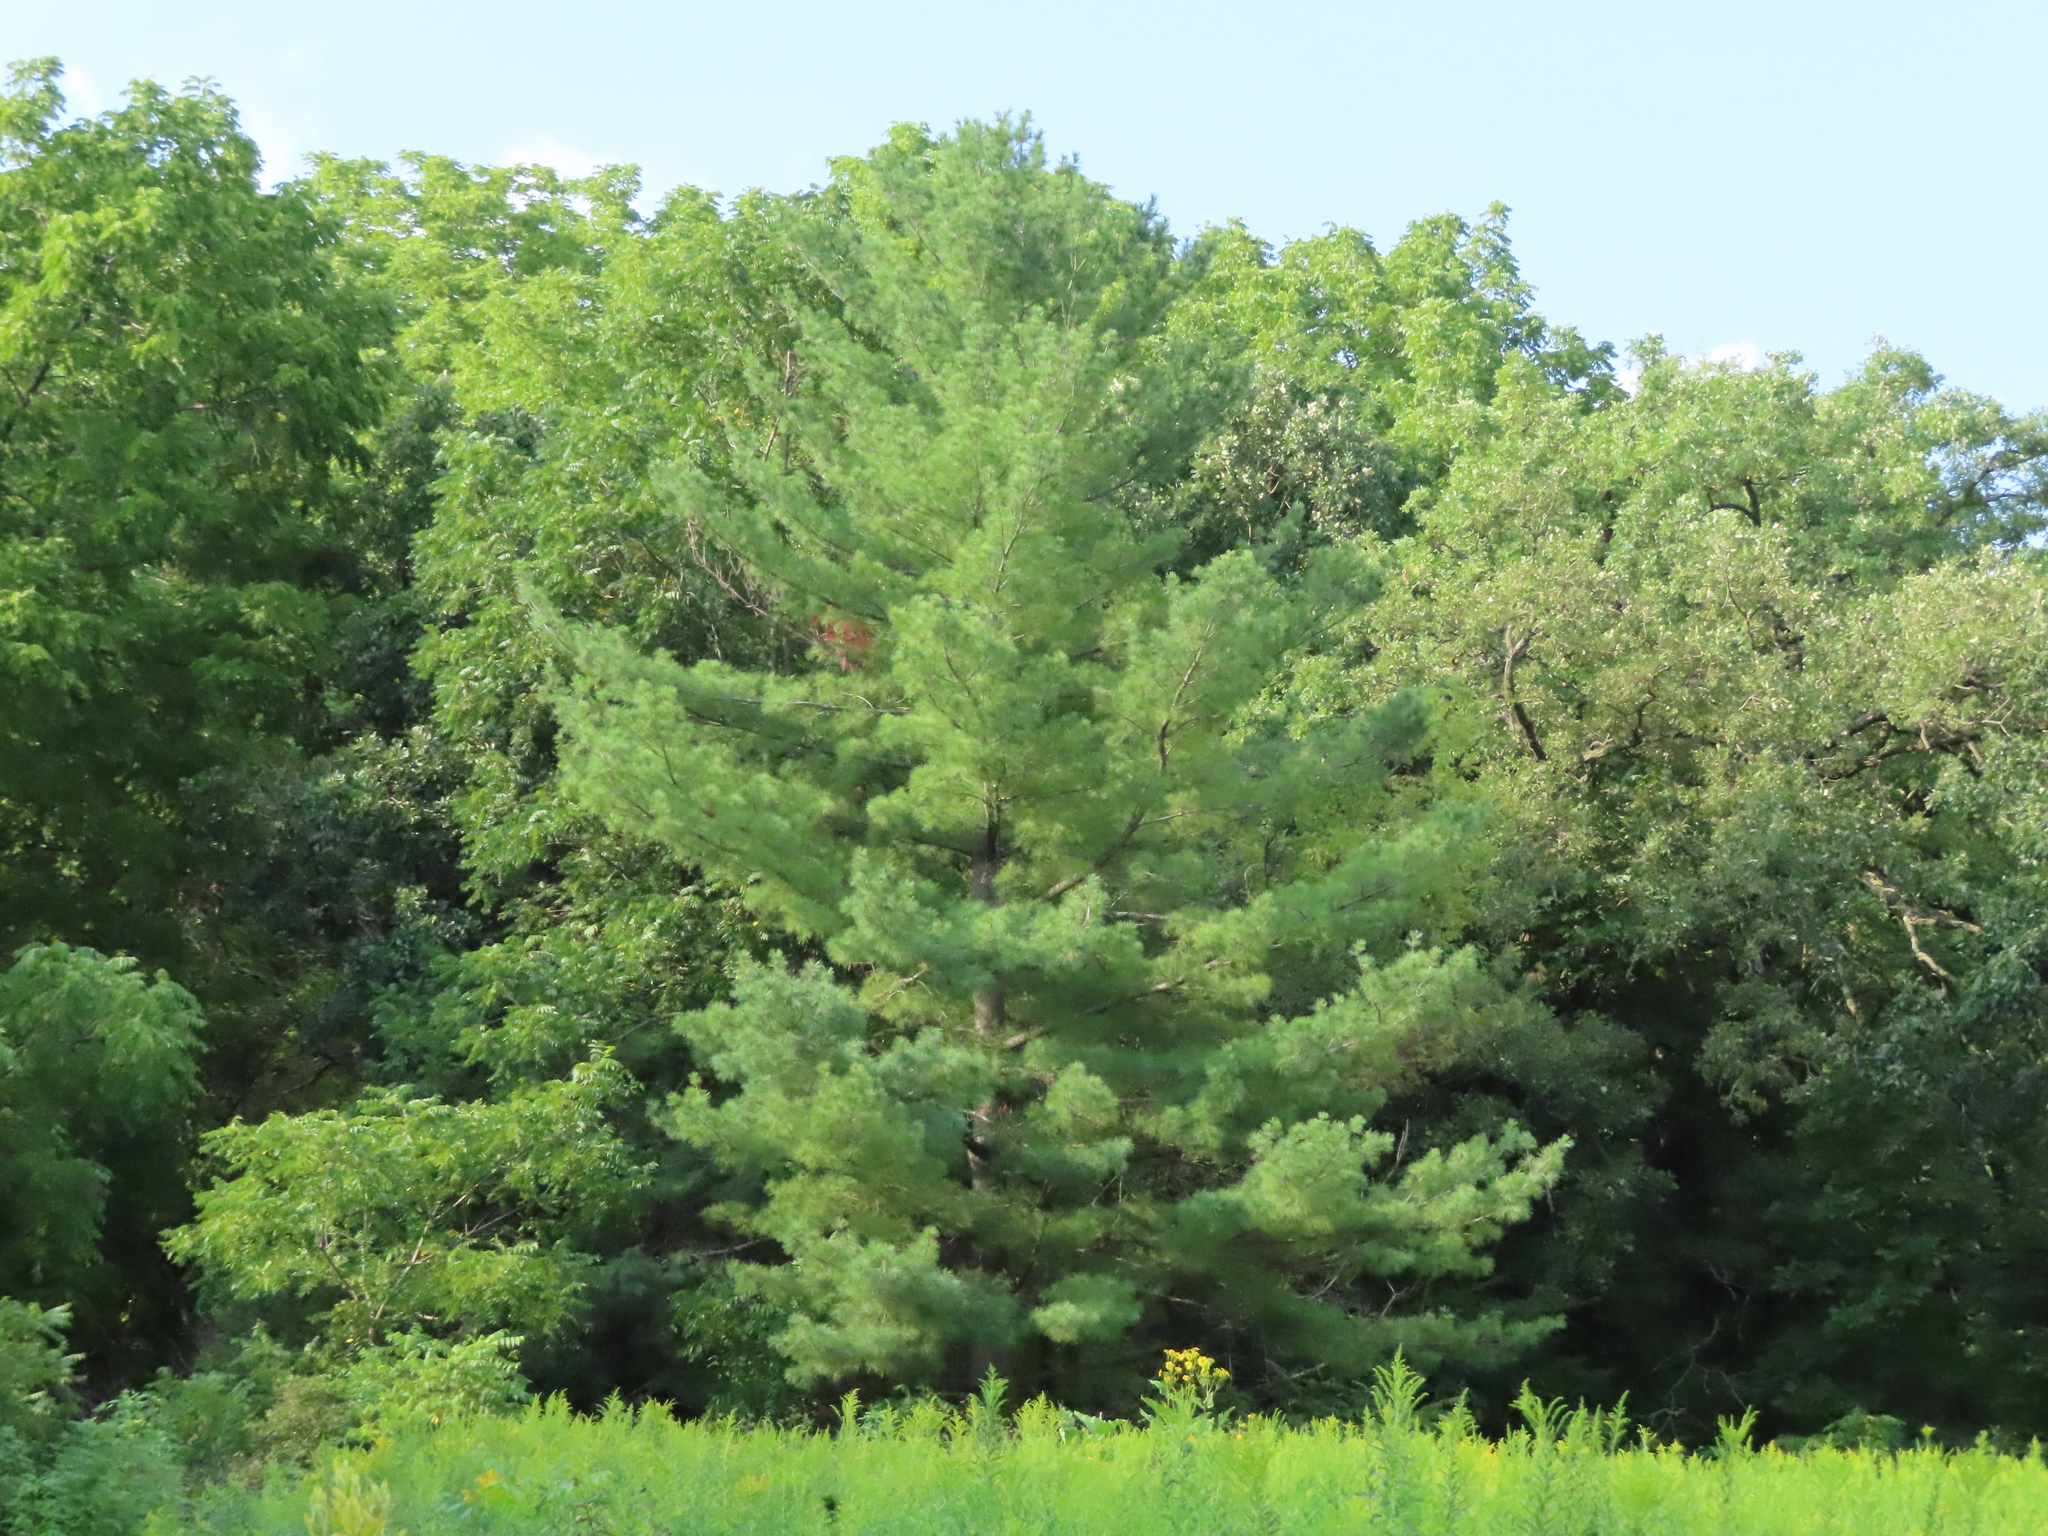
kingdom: Plantae
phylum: Tracheophyta
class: Pinopsida
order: Pinales
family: Pinaceae
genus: Pinus
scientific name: Pinus strobus
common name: Weymouth pine
